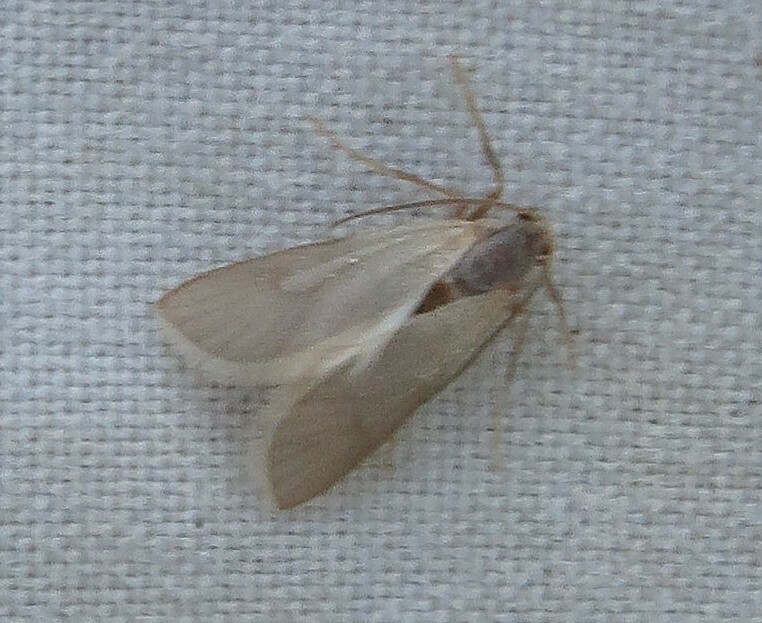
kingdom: Animalia
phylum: Arthropoda
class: Insecta
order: Lepidoptera
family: Crambidae
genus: Acentria
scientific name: Acentria ephemerella
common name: European water moth
